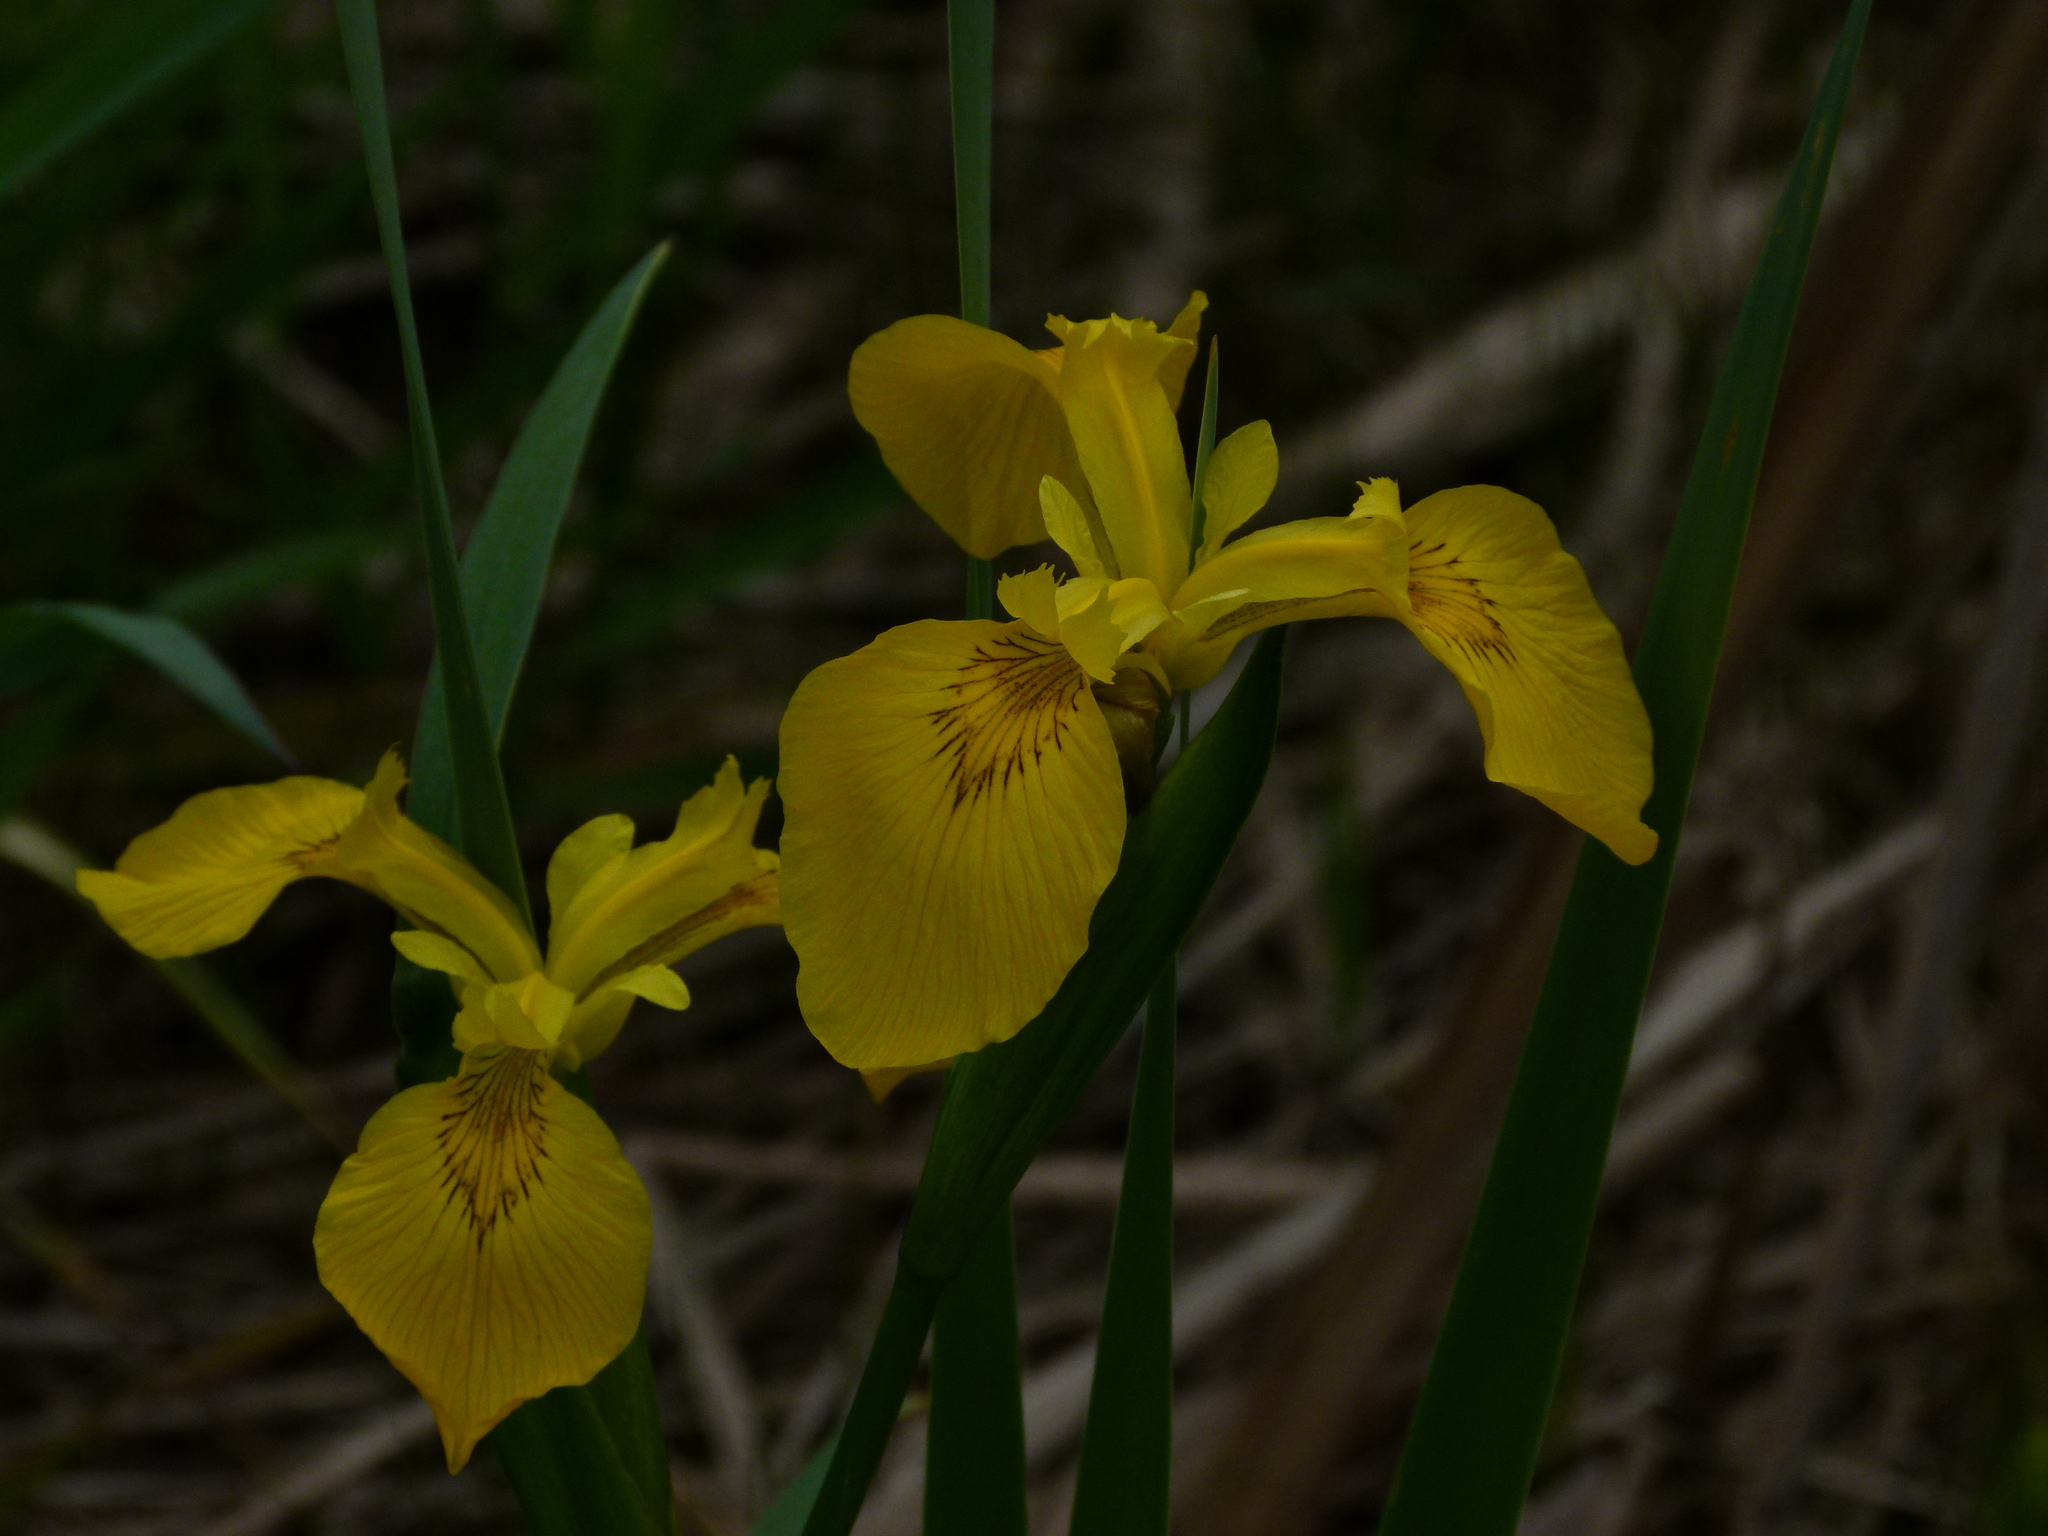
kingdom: Plantae
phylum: Tracheophyta
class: Liliopsida
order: Asparagales
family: Iridaceae
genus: Iris
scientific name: Iris pseudacorus
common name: Yellow flag
